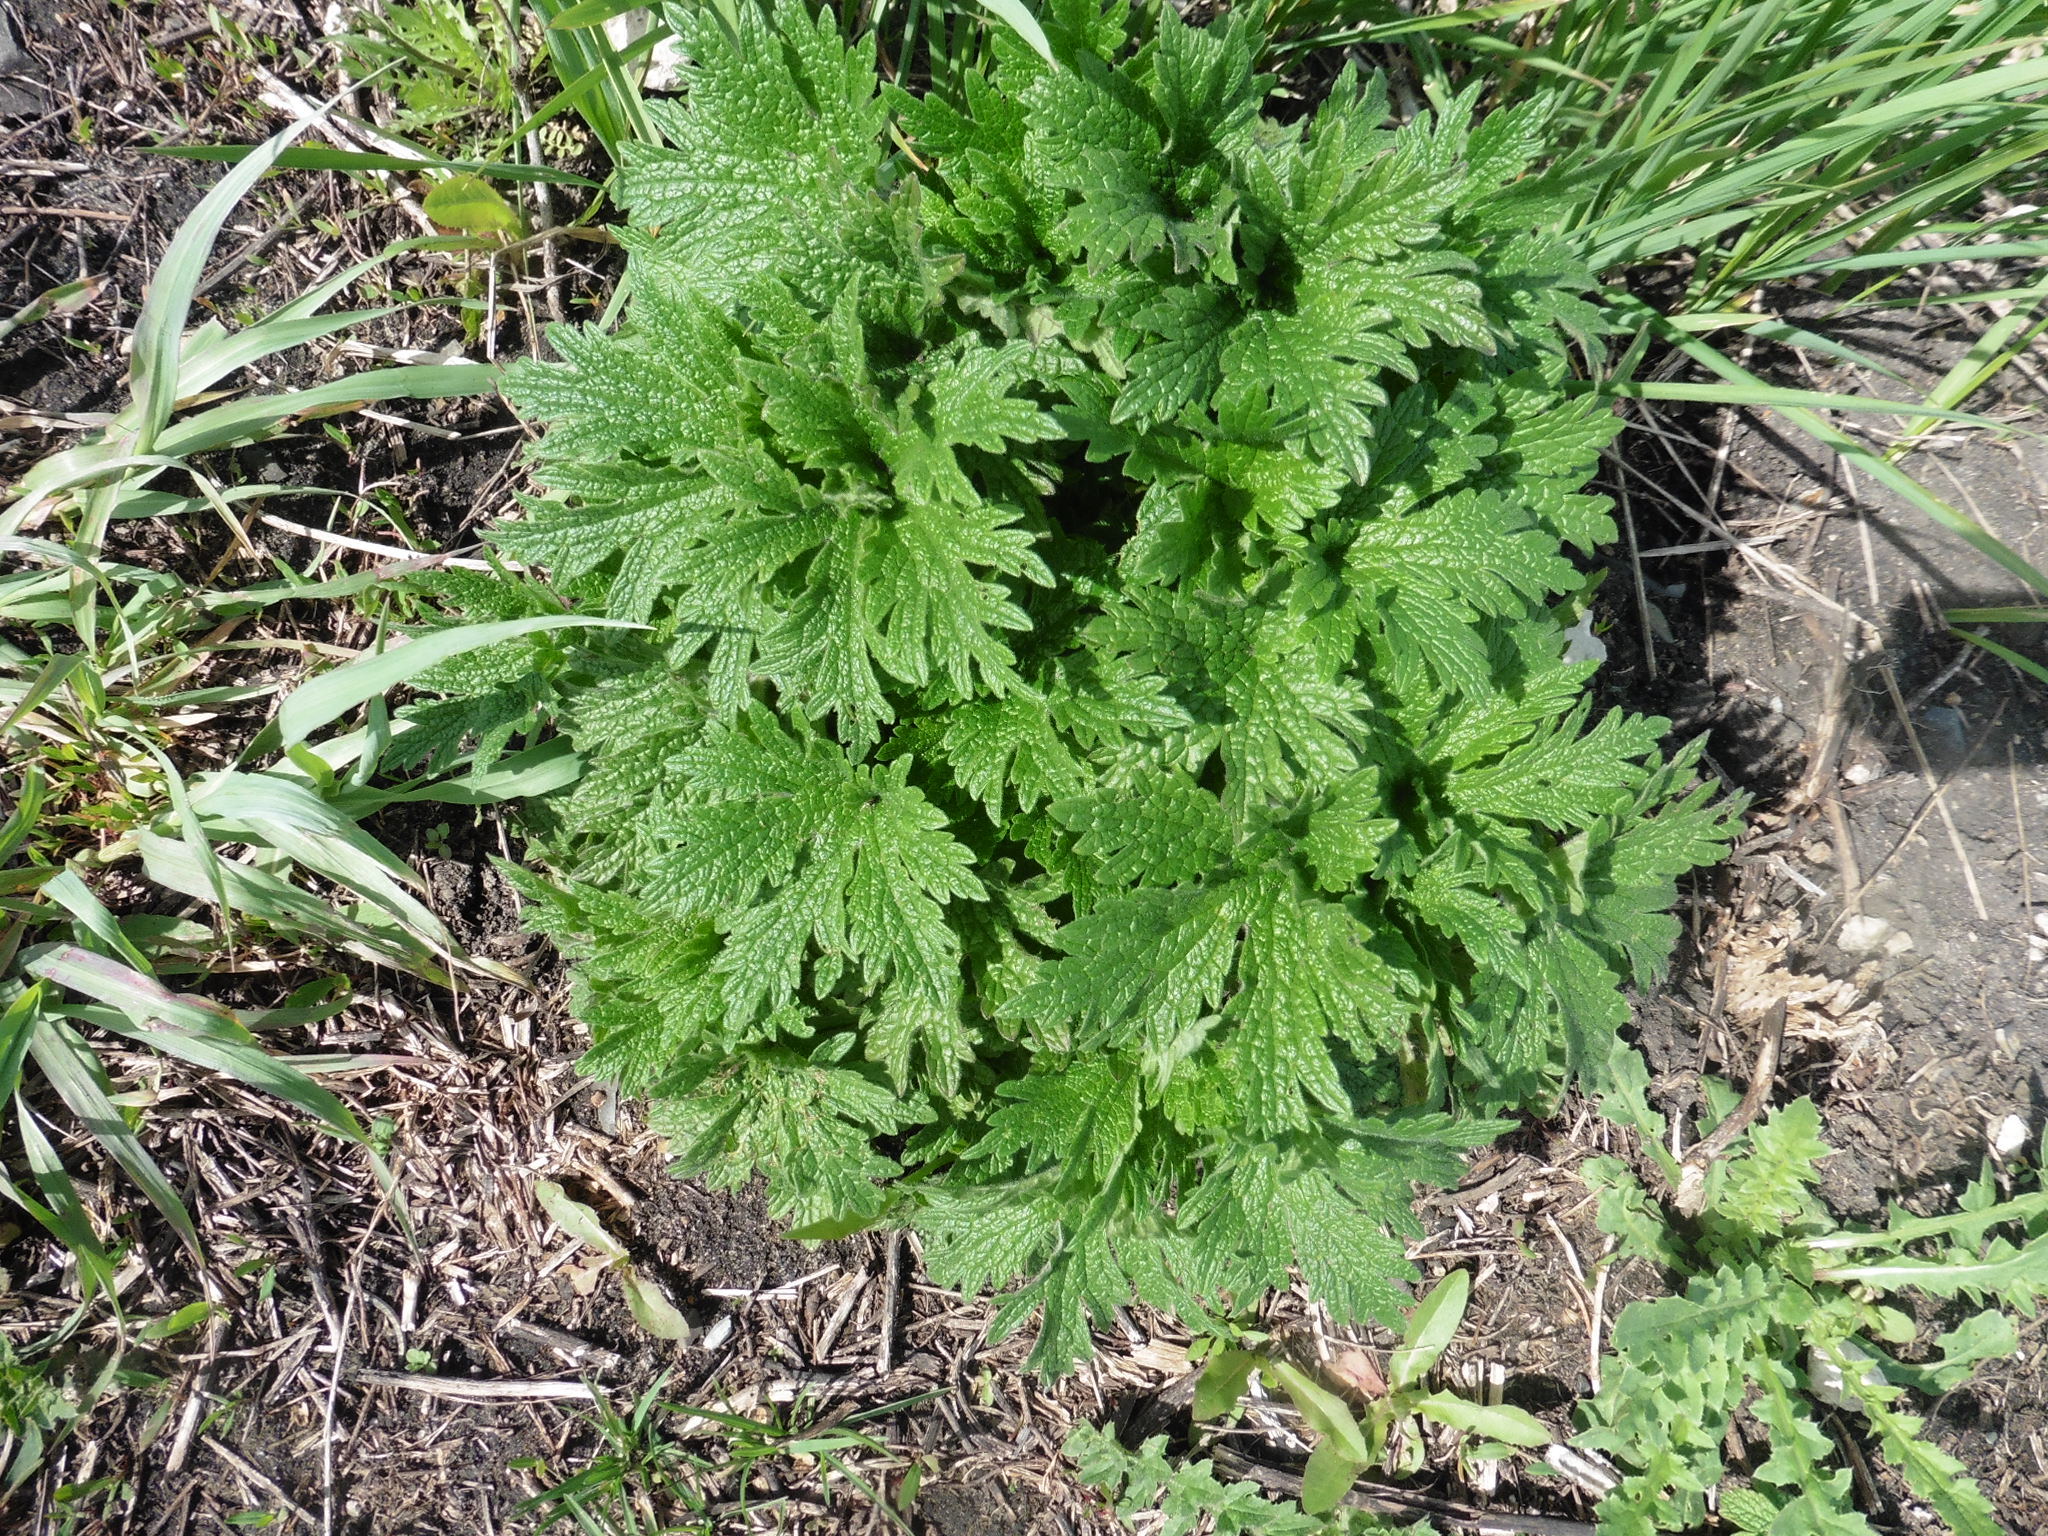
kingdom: Plantae
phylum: Tracheophyta
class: Magnoliopsida
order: Lamiales
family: Lamiaceae
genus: Leonurus
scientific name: Leonurus quinquelobatus
